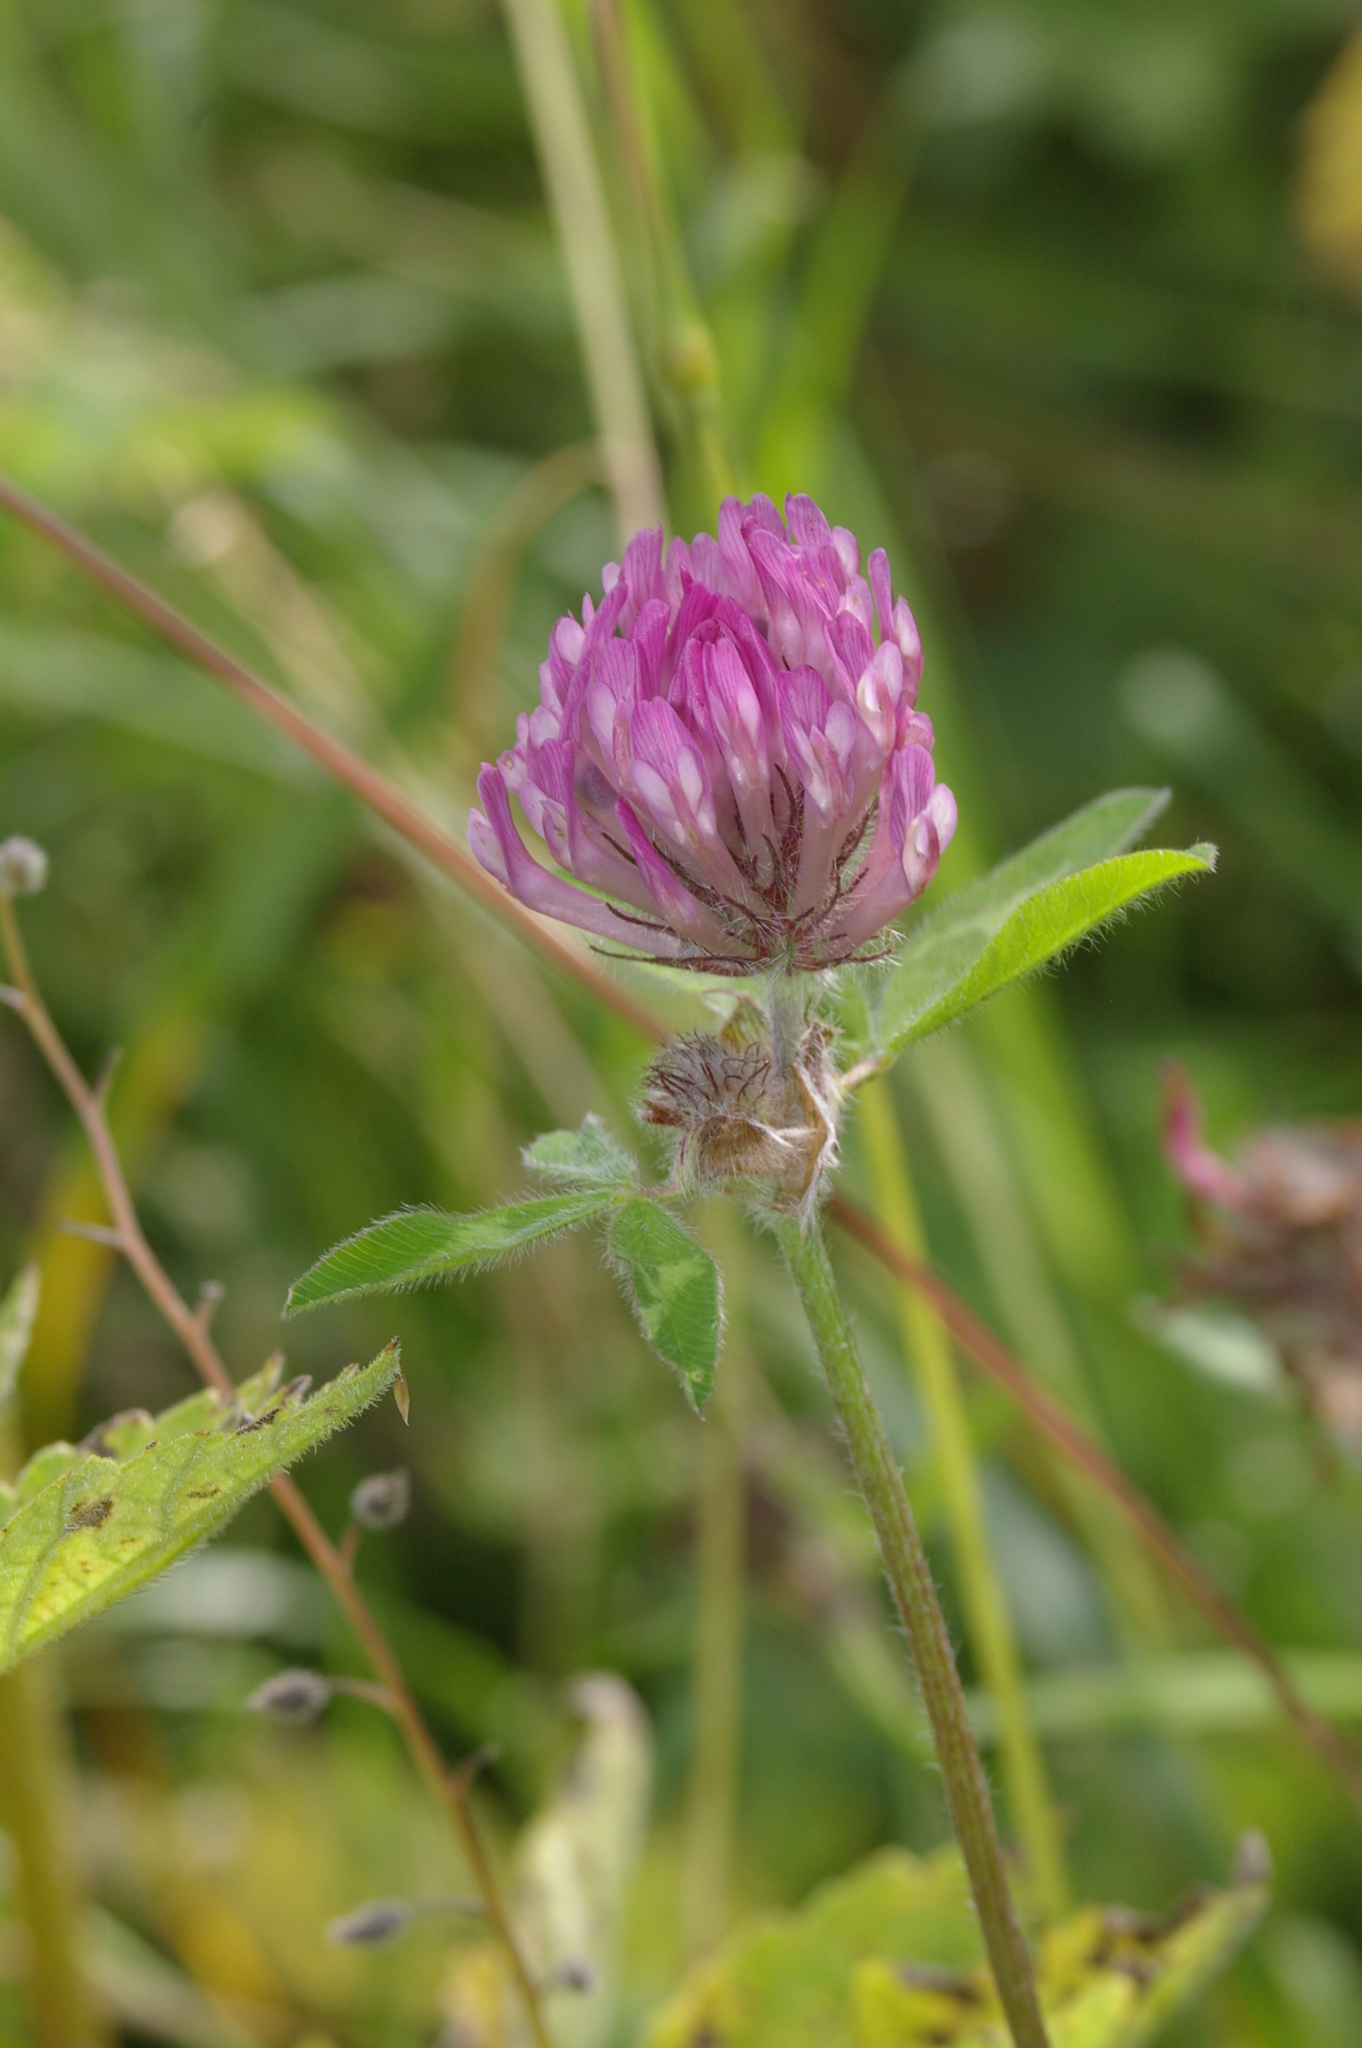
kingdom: Plantae
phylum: Tracheophyta
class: Magnoliopsida
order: Fabales
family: Fabaceae
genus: Trifolium
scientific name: Trifolium pratense
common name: Red clover
